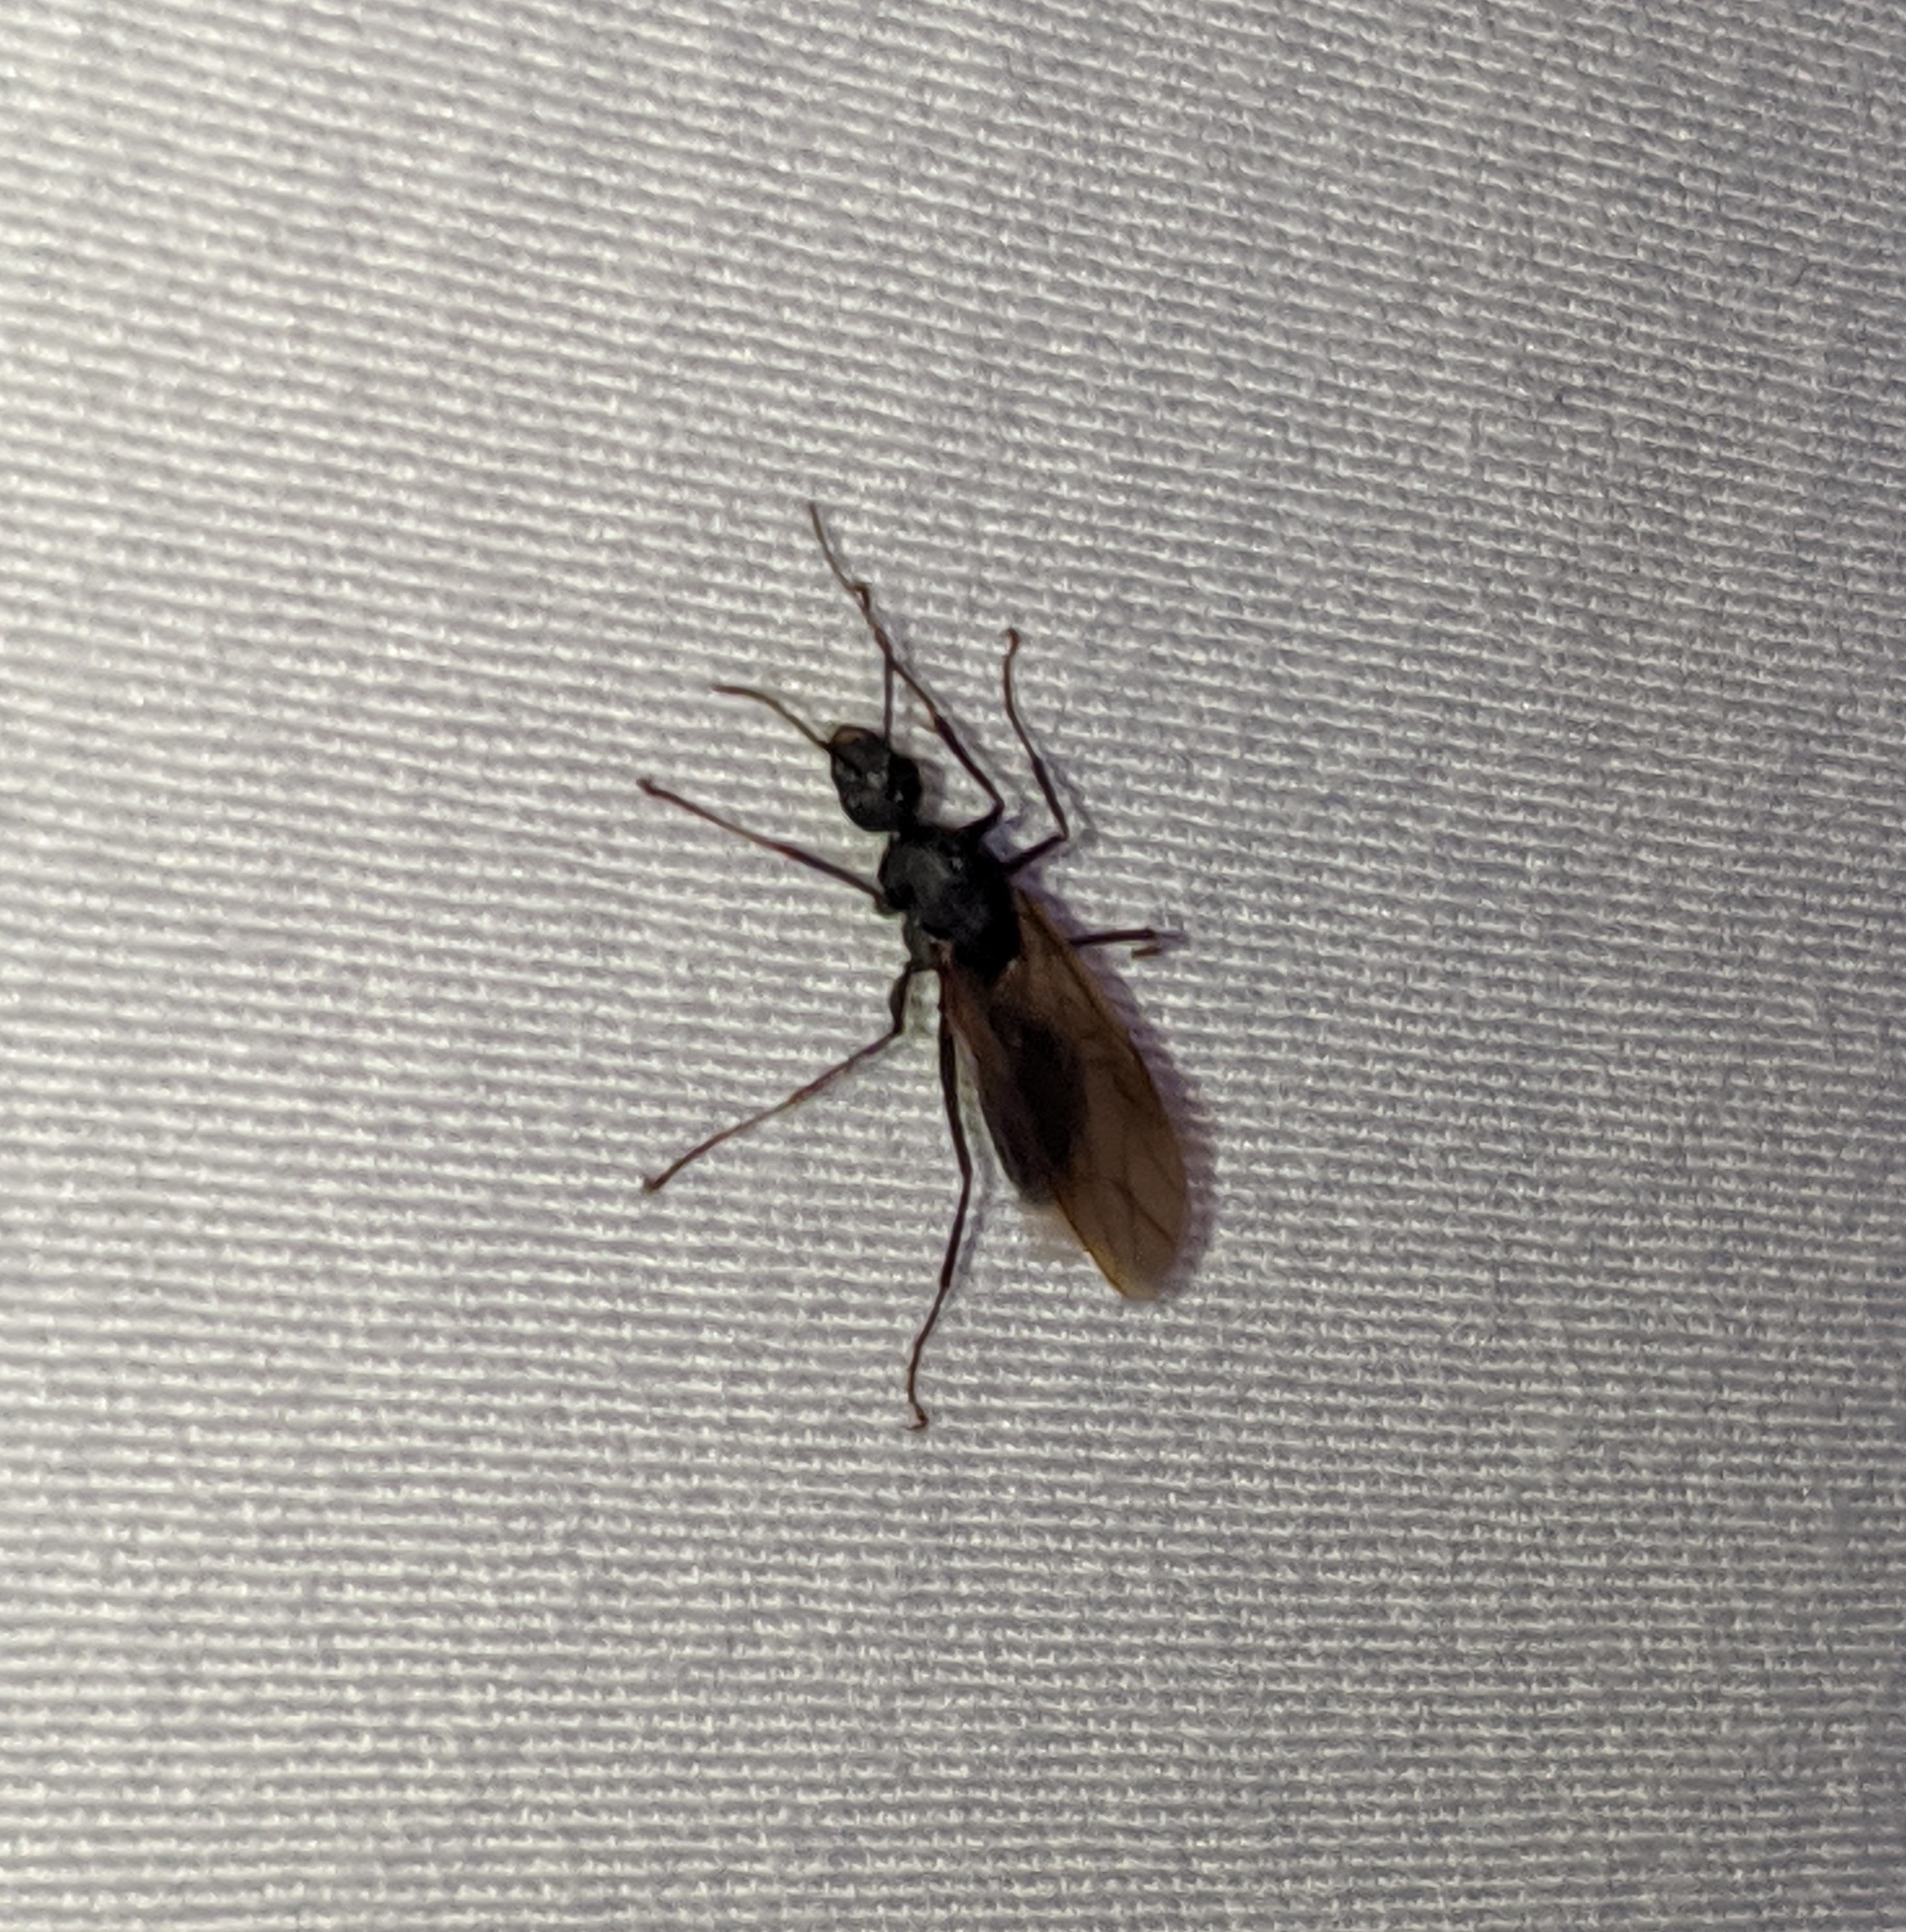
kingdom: Animalia
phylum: Arthropoda
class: Insecta
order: Hymenoptera
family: Formicidae
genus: Camponotus
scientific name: Camponotus modoc
